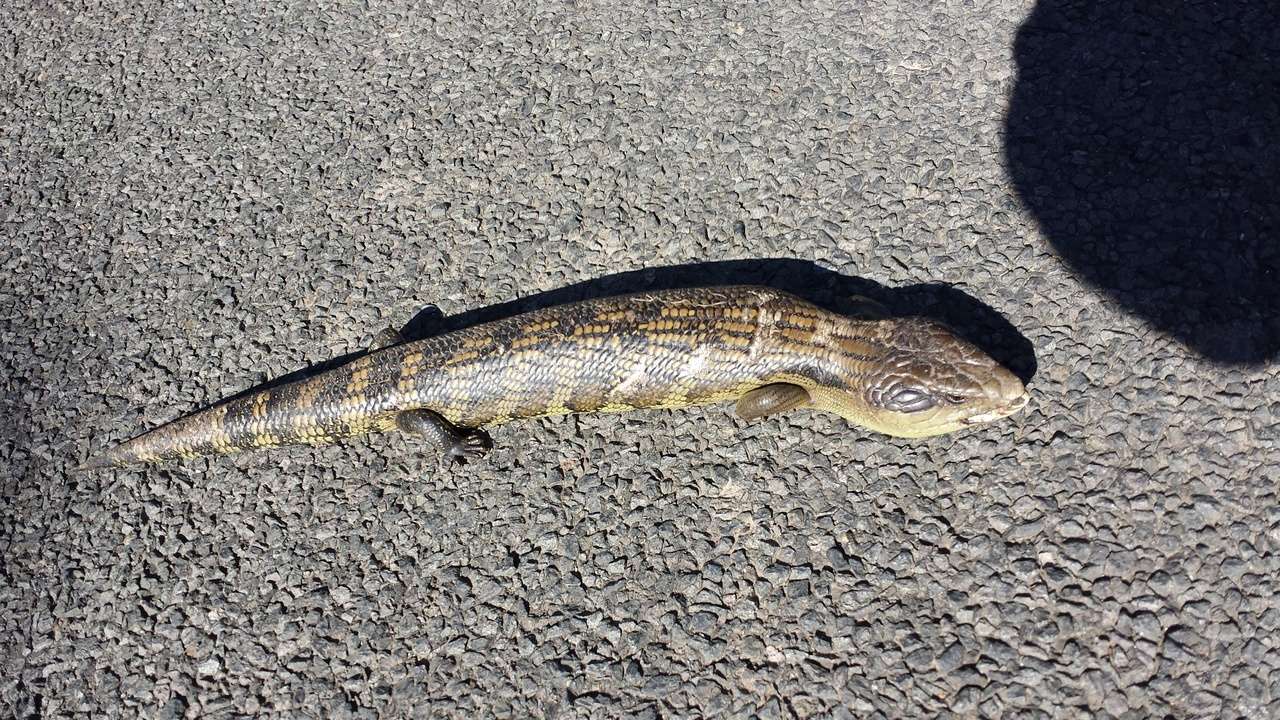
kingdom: Animalia
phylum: Chordata
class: Squamata
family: Scincidae
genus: Tiliqua
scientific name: Tiliqua scincoides
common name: Common bluetongue
